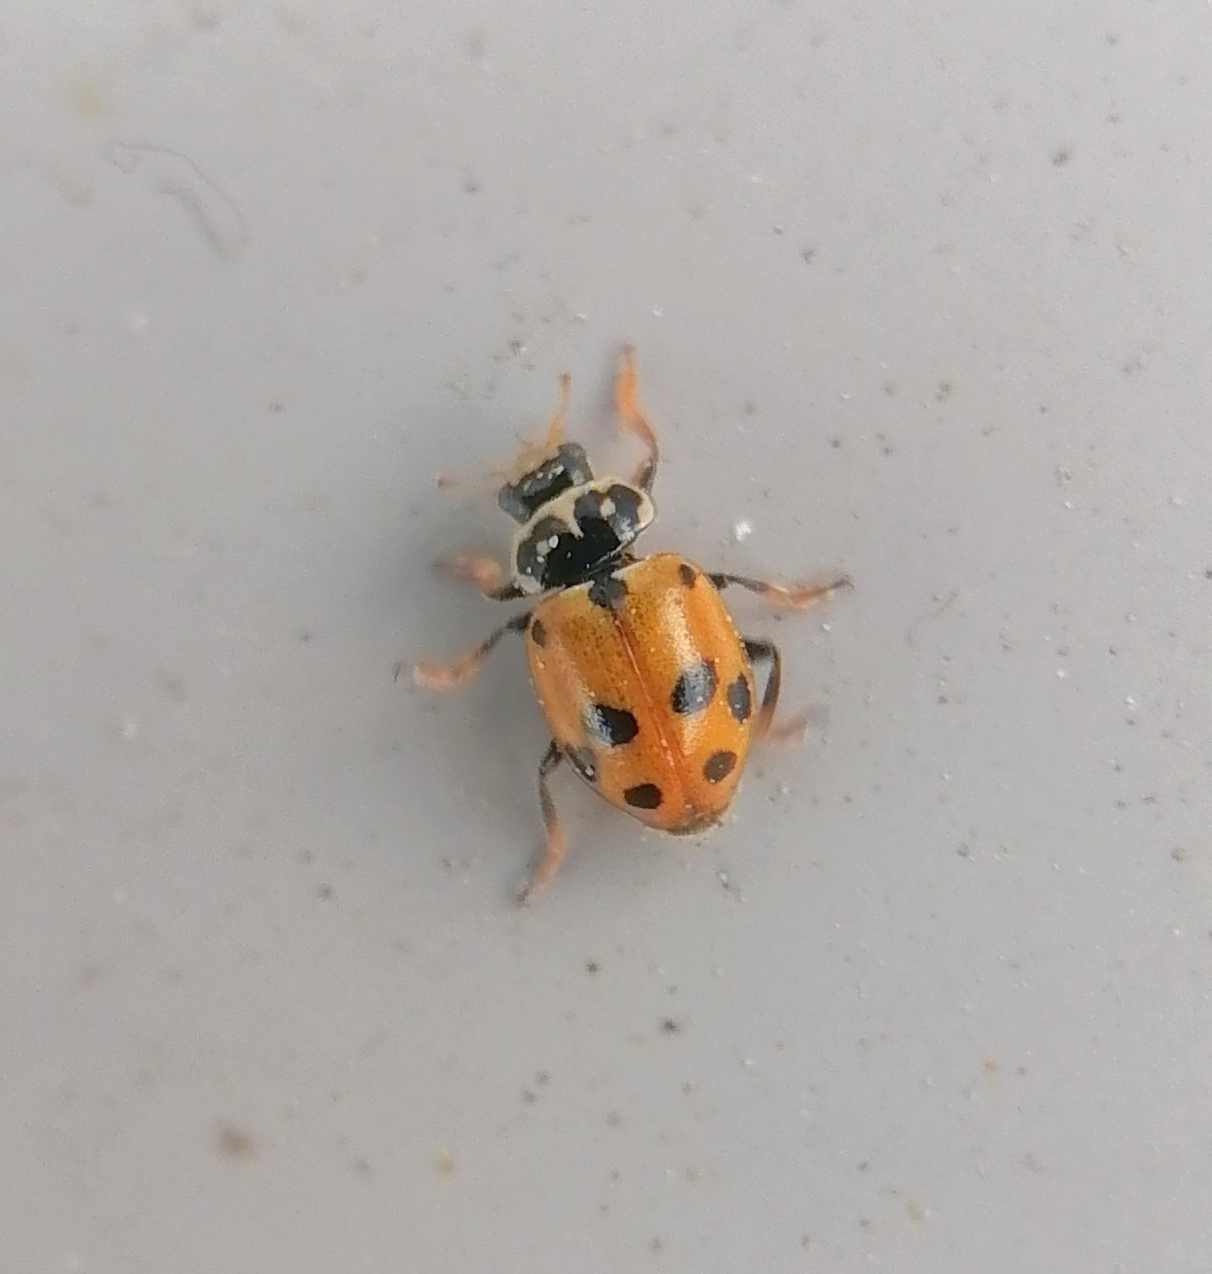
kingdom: Animalia
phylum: Arthropoda
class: Insecta
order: Coleoptera
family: Coccinellidae
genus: Hippodamia
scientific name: Hippodamia variegata
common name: Ladybird beetle
